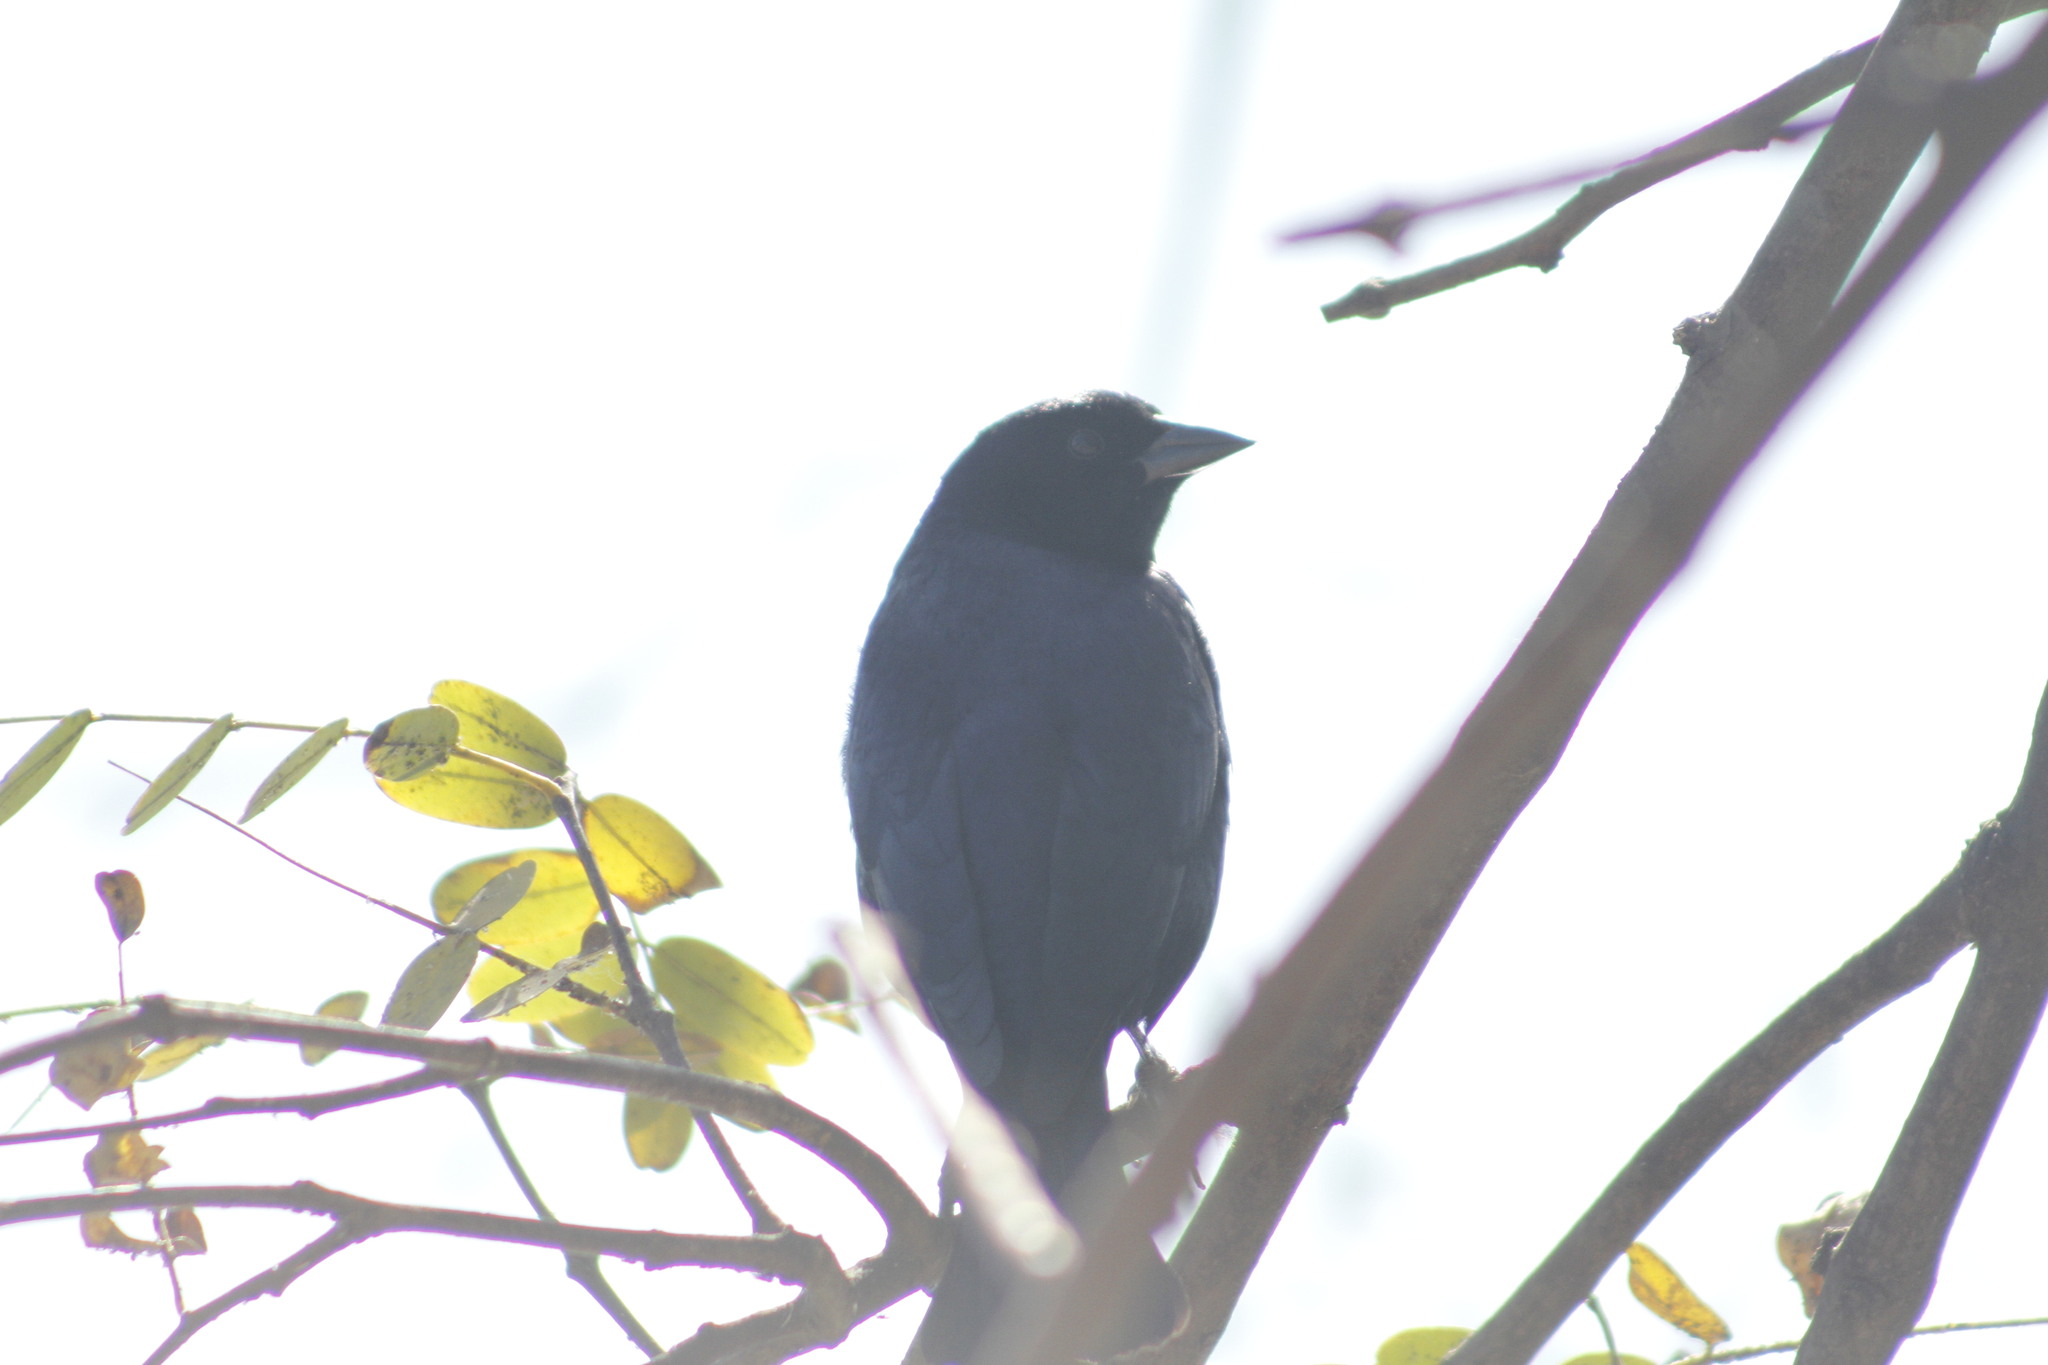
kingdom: Animalia
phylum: Chordata
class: Aves
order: Passeriformes
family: Icteridae
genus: Molothrus
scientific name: Molothrus bonariensis
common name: Shiny cowbird
